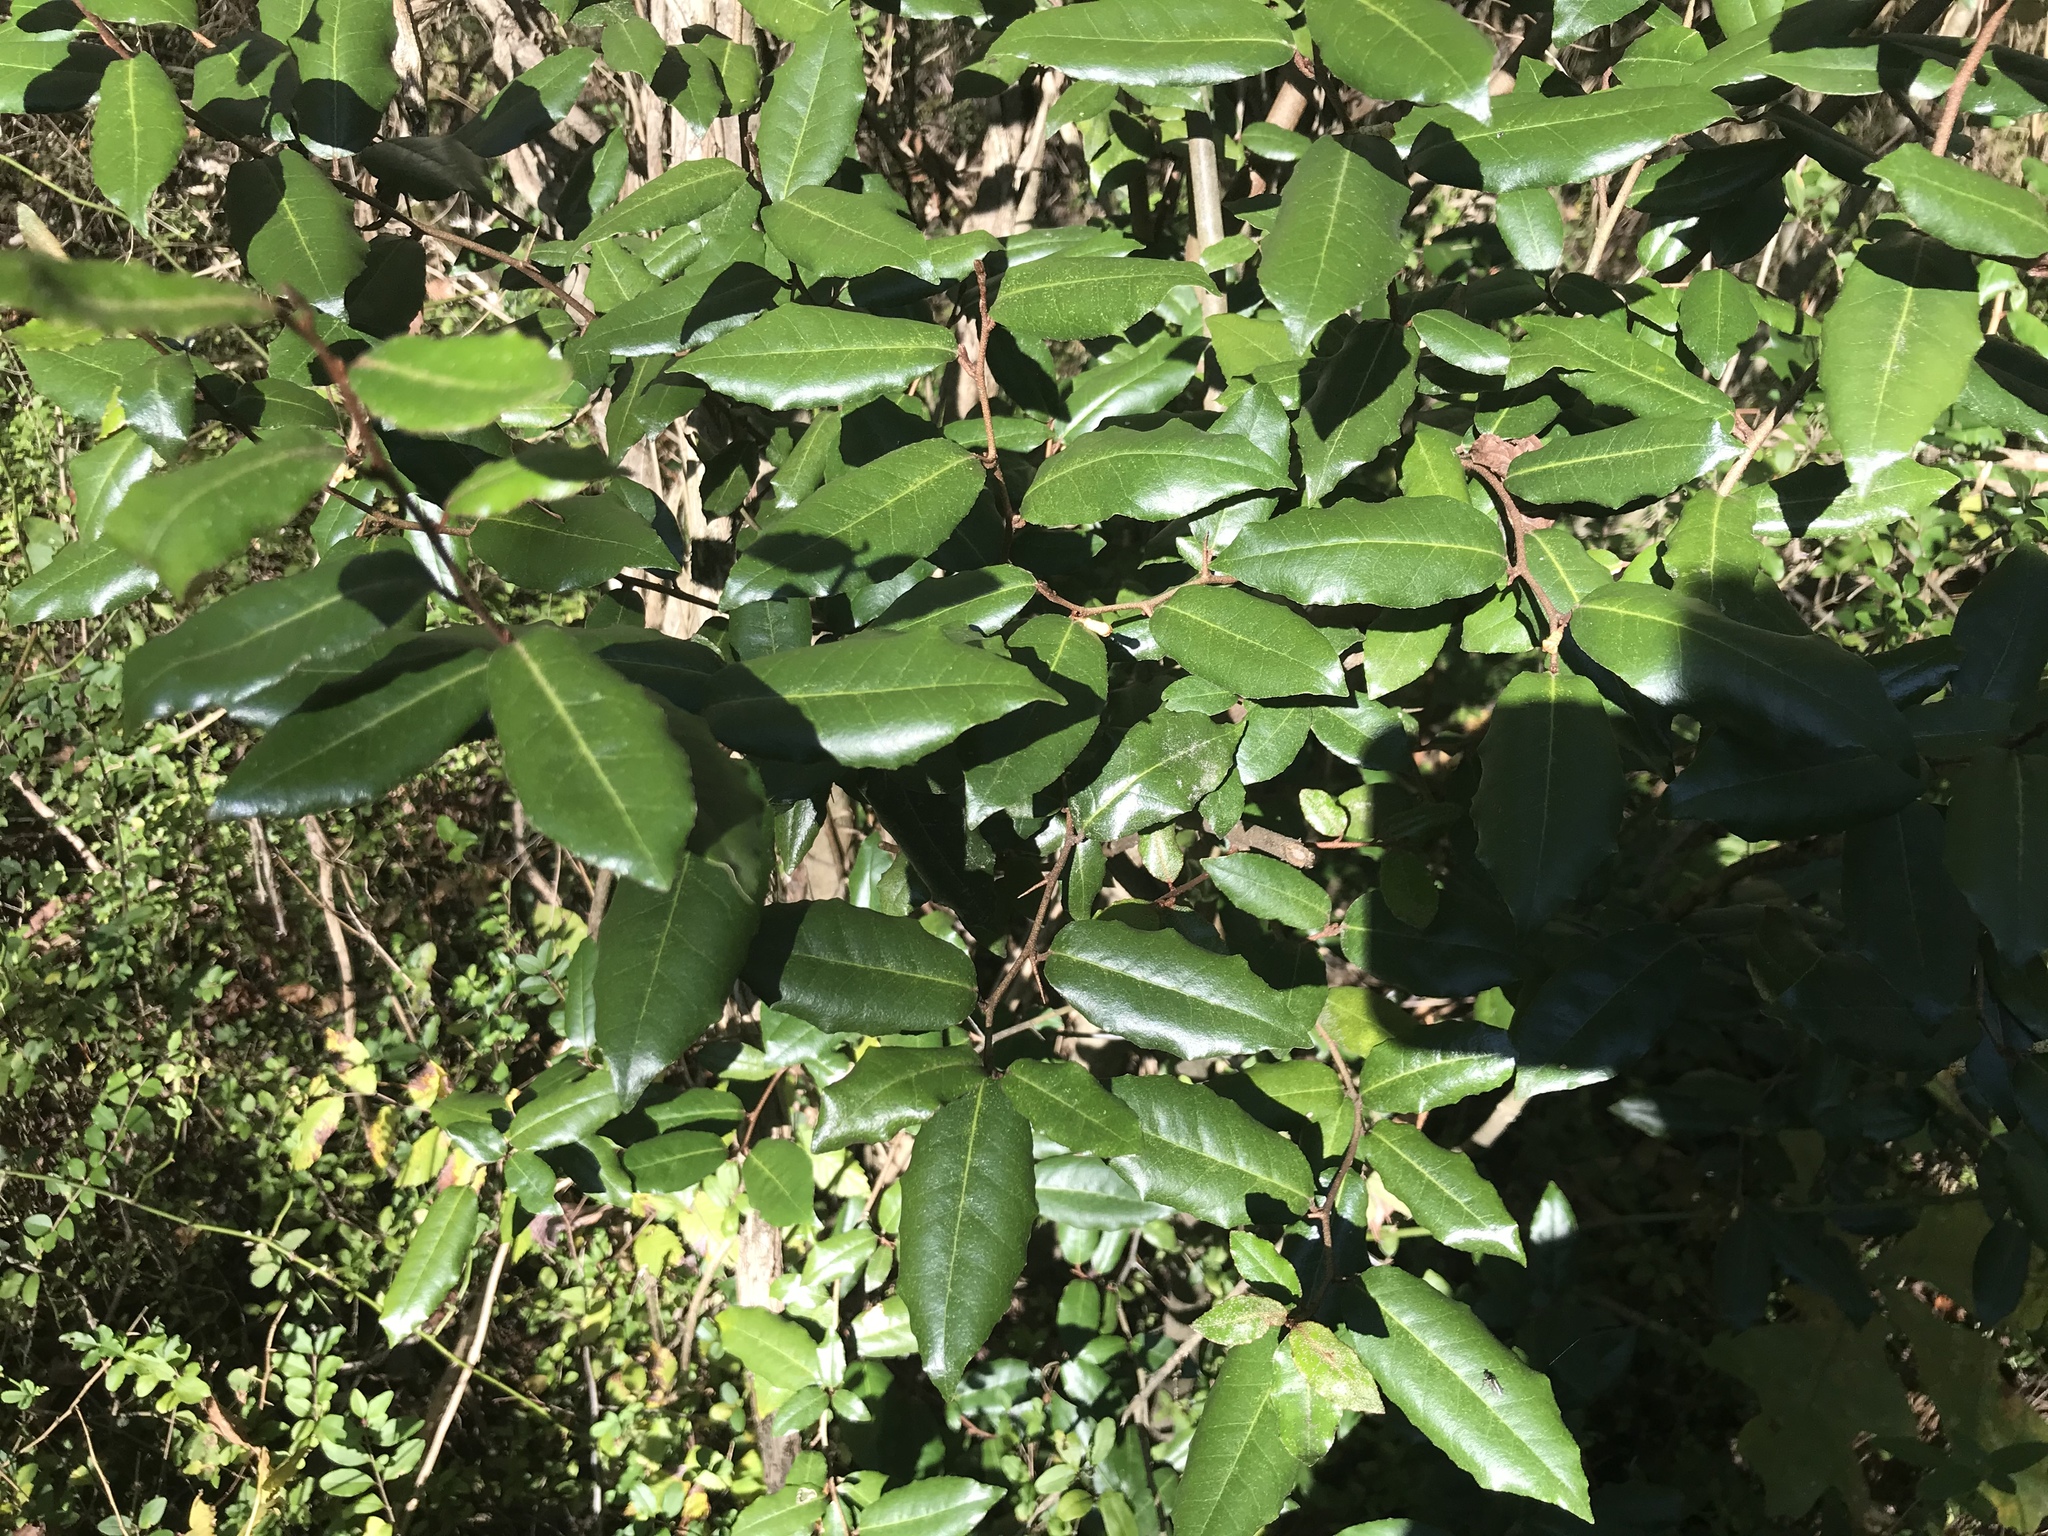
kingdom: Plantae
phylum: Tracheophyta
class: Magnoliopsida
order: Rosales
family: Elaeagnaceae
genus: Elaeagnus
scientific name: Elaeagnus pungens
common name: Spiny oleaster
